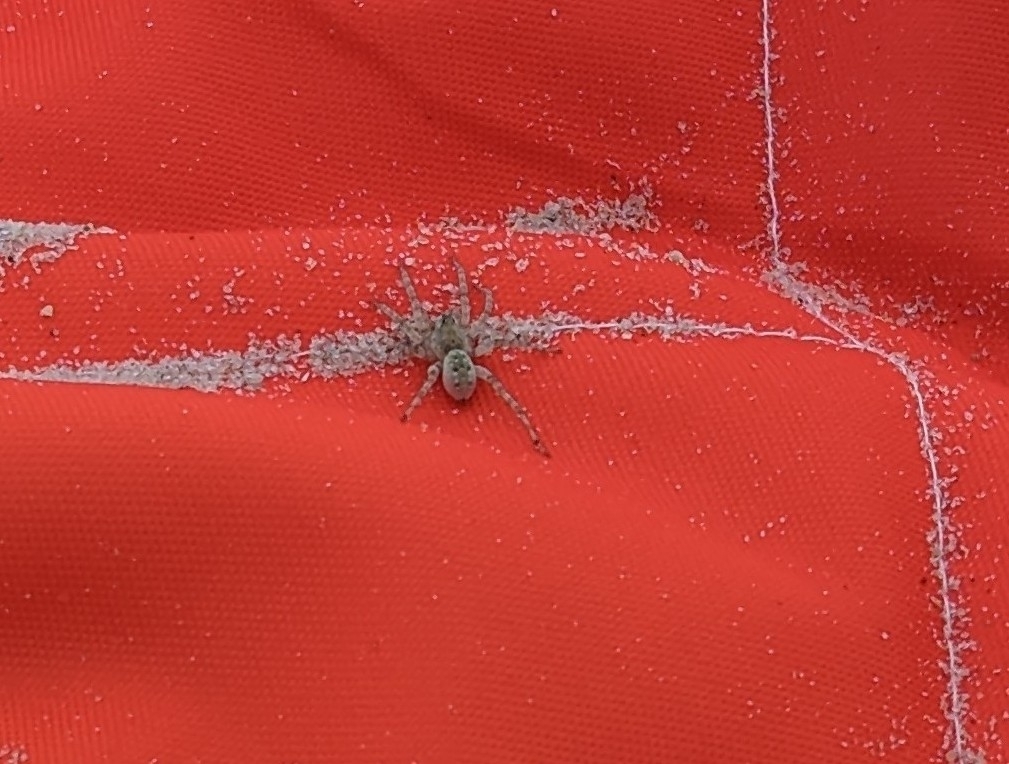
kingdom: Animalia
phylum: Arthropoda
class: Arachnida
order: Araneae
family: Lycosidae
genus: Arctosa
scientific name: Arctosa littoralis
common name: Wolf spiders
